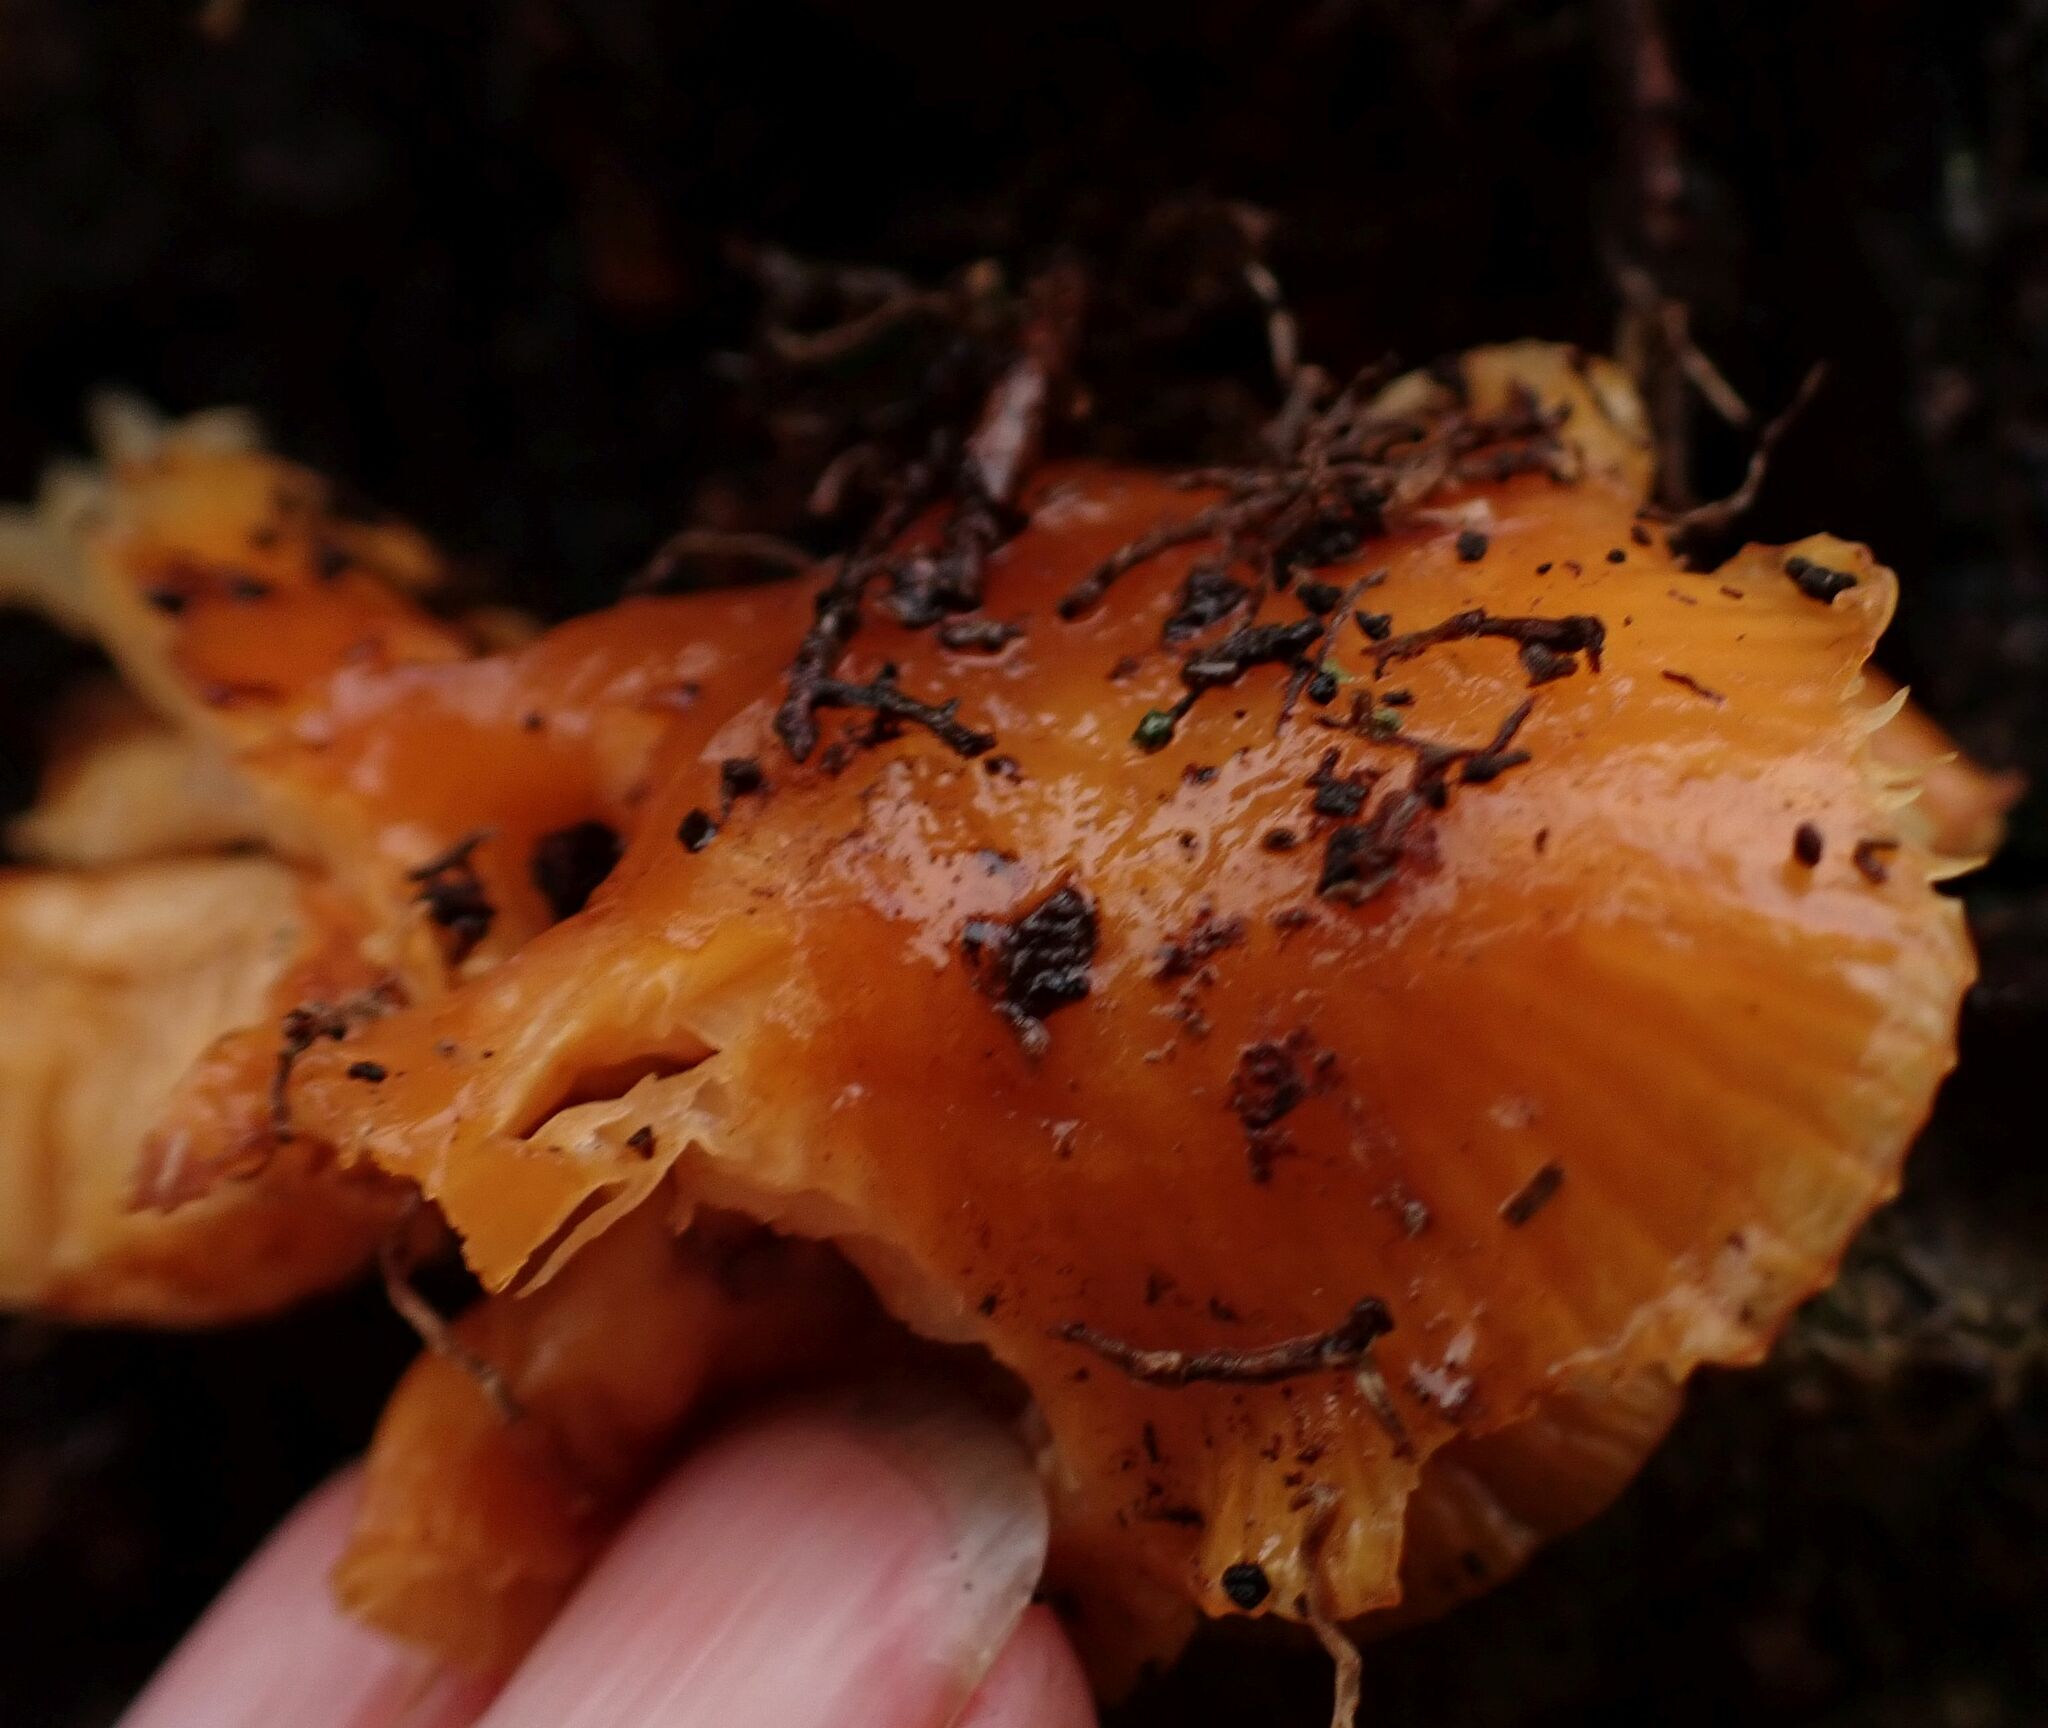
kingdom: Fungi
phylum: Basidiomycota
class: Agaricomycetes
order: Agaricales
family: Physalacriaceae
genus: Flammulina
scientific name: Flammulina
